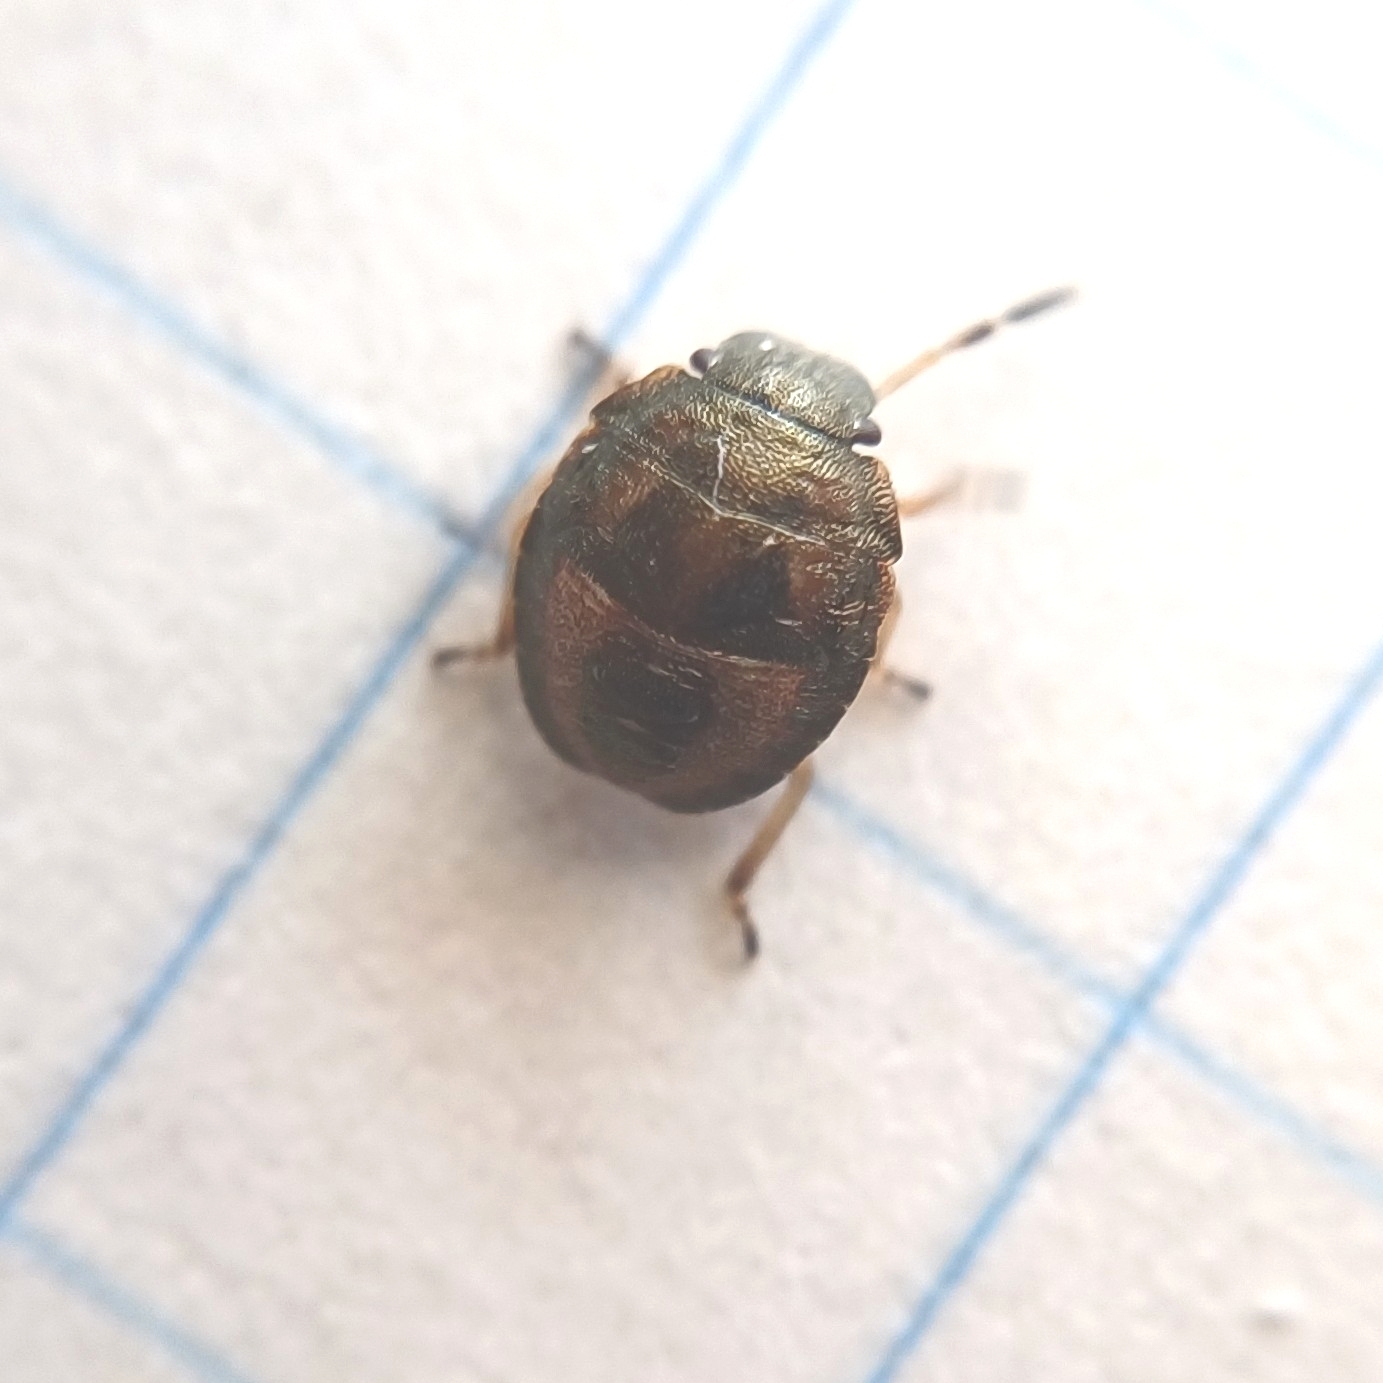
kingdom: Animalia
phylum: Arthropoda
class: Insecta
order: Hemiptera
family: Pentatomidae
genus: Neottiglossa
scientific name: Neottiglossa pusilla
